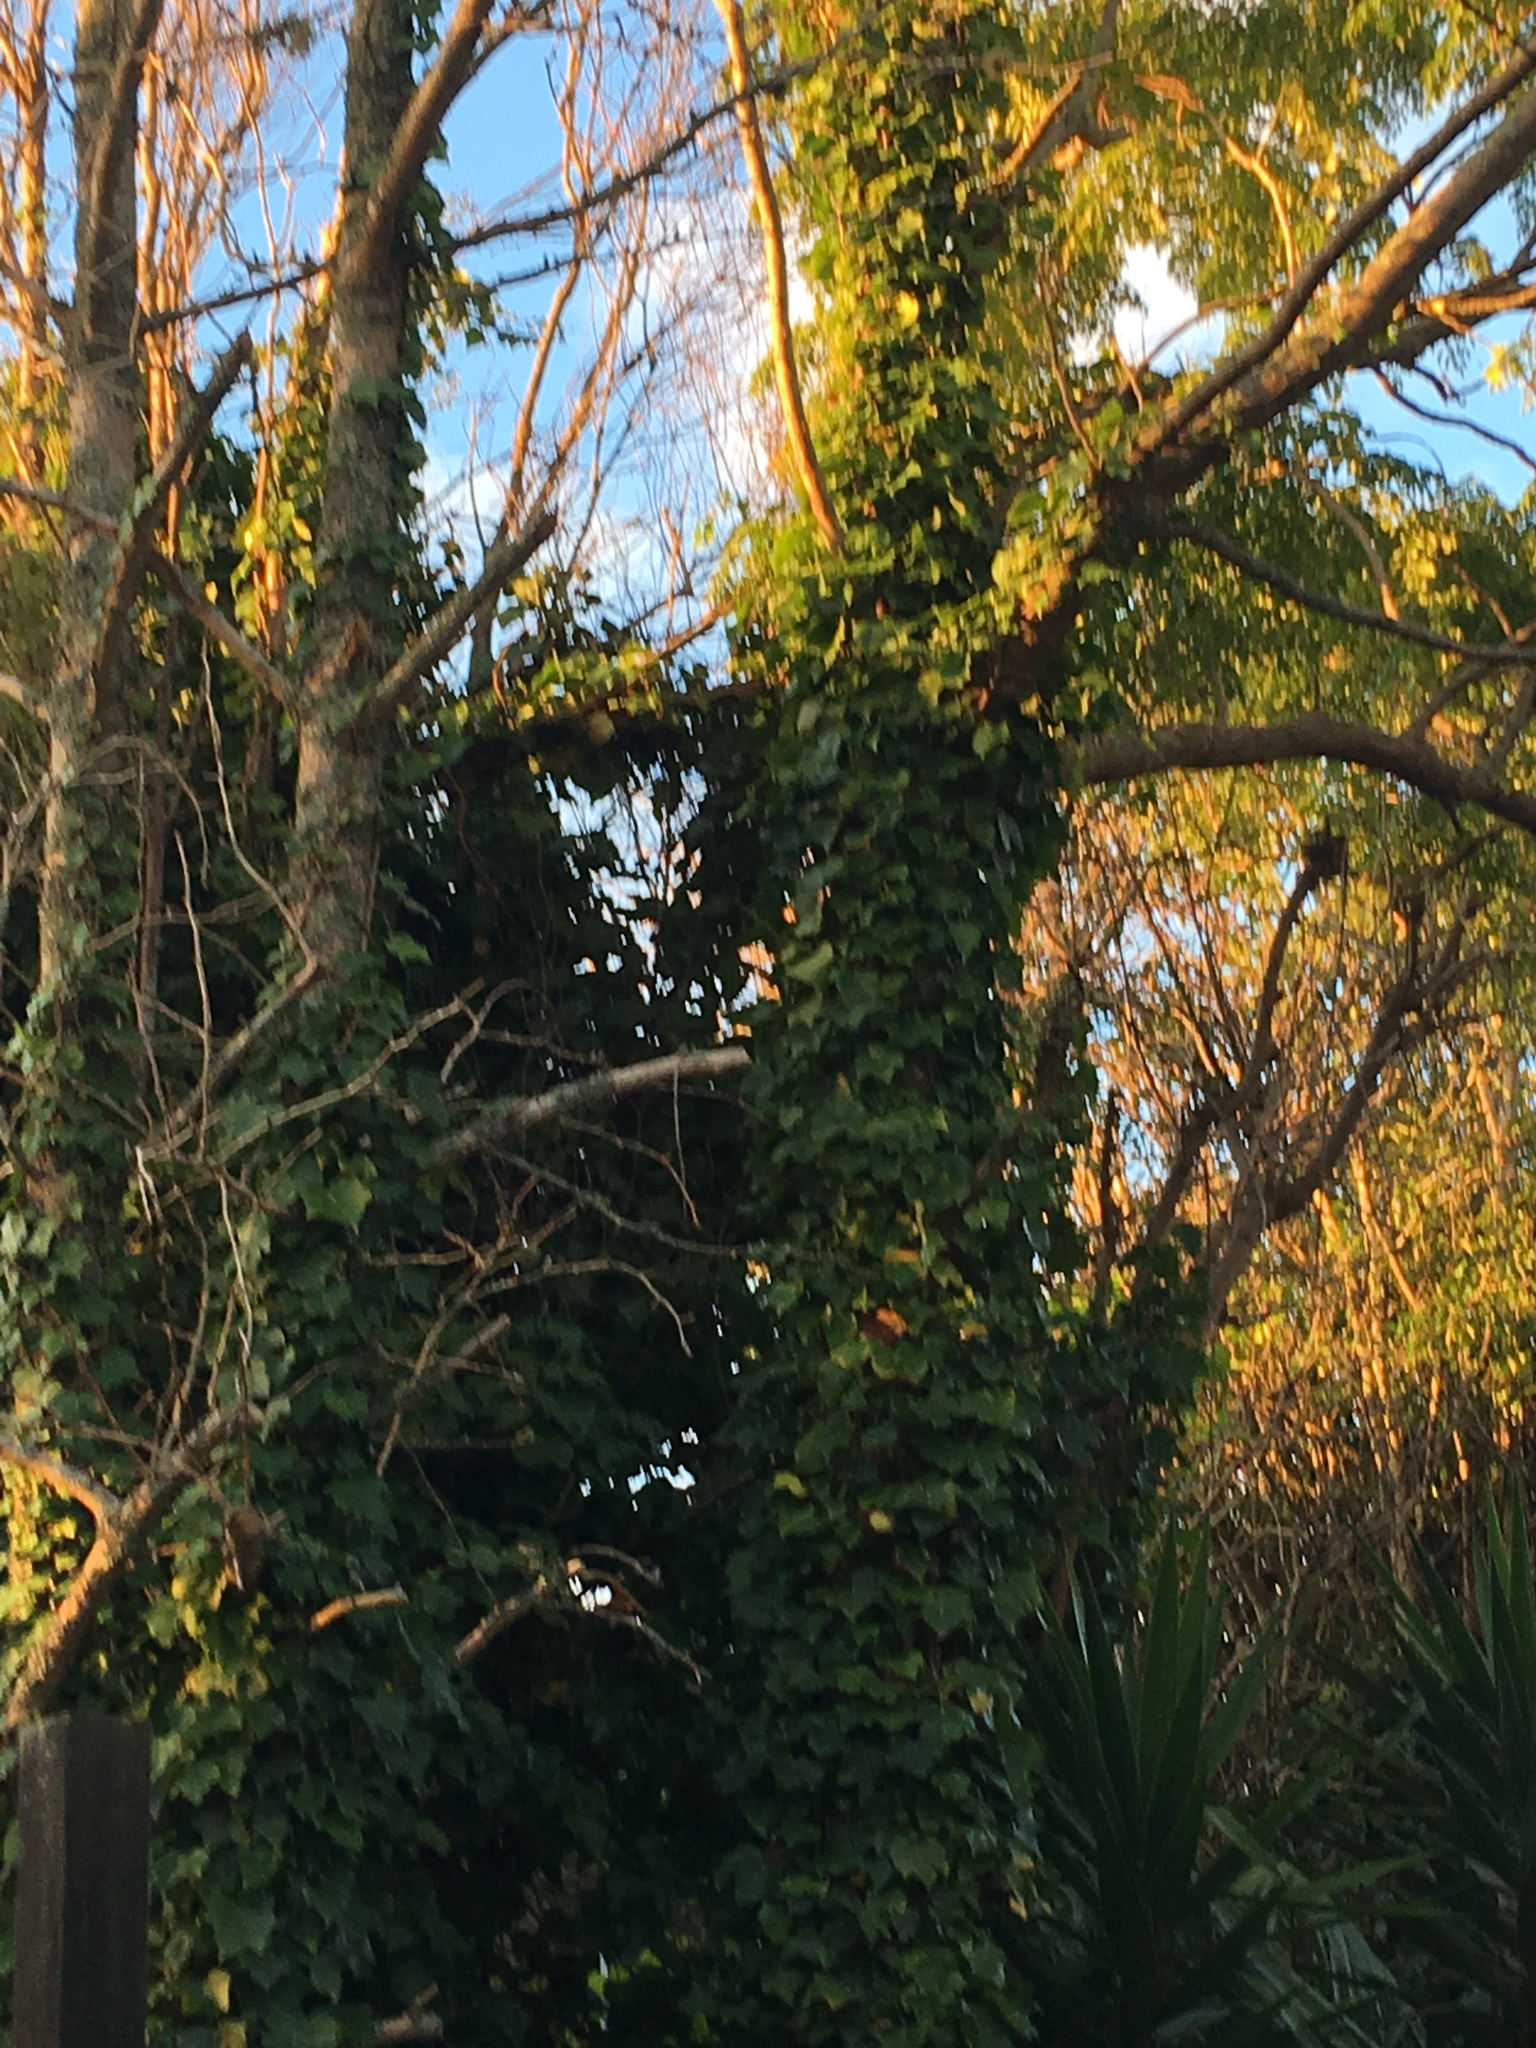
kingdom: Plantae
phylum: Tracheophyta
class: Magnoliopsida
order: Apiales
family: Araliaceae
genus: Hedera
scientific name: Hedera helix
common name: Ivy
